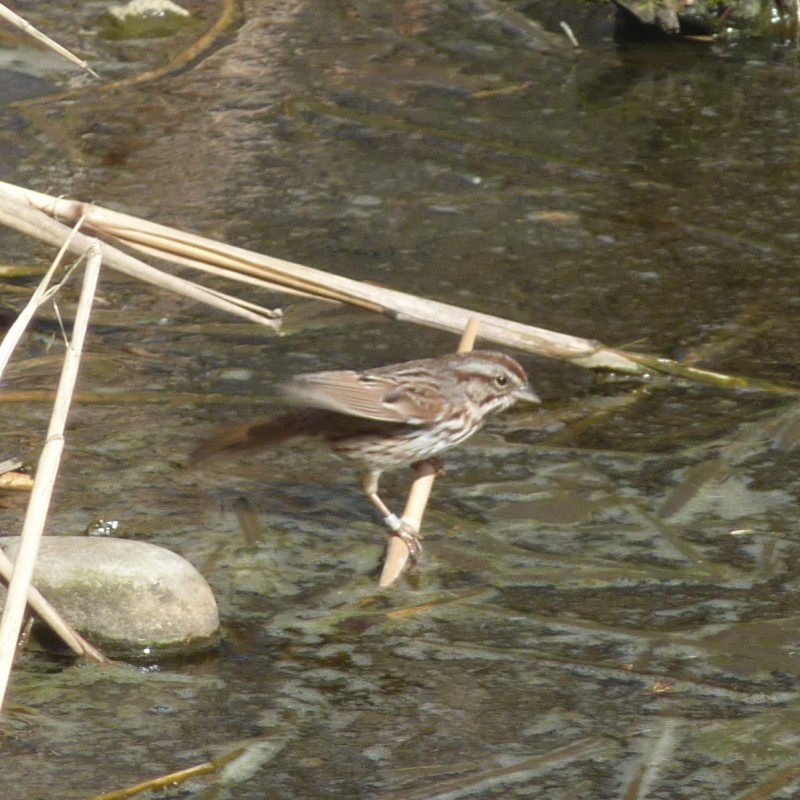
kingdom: Animalia
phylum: Chordata
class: Aves
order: Passeriformes
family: Passerellidae
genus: Melospiza
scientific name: Melospiza melodia
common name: Song sparrow
